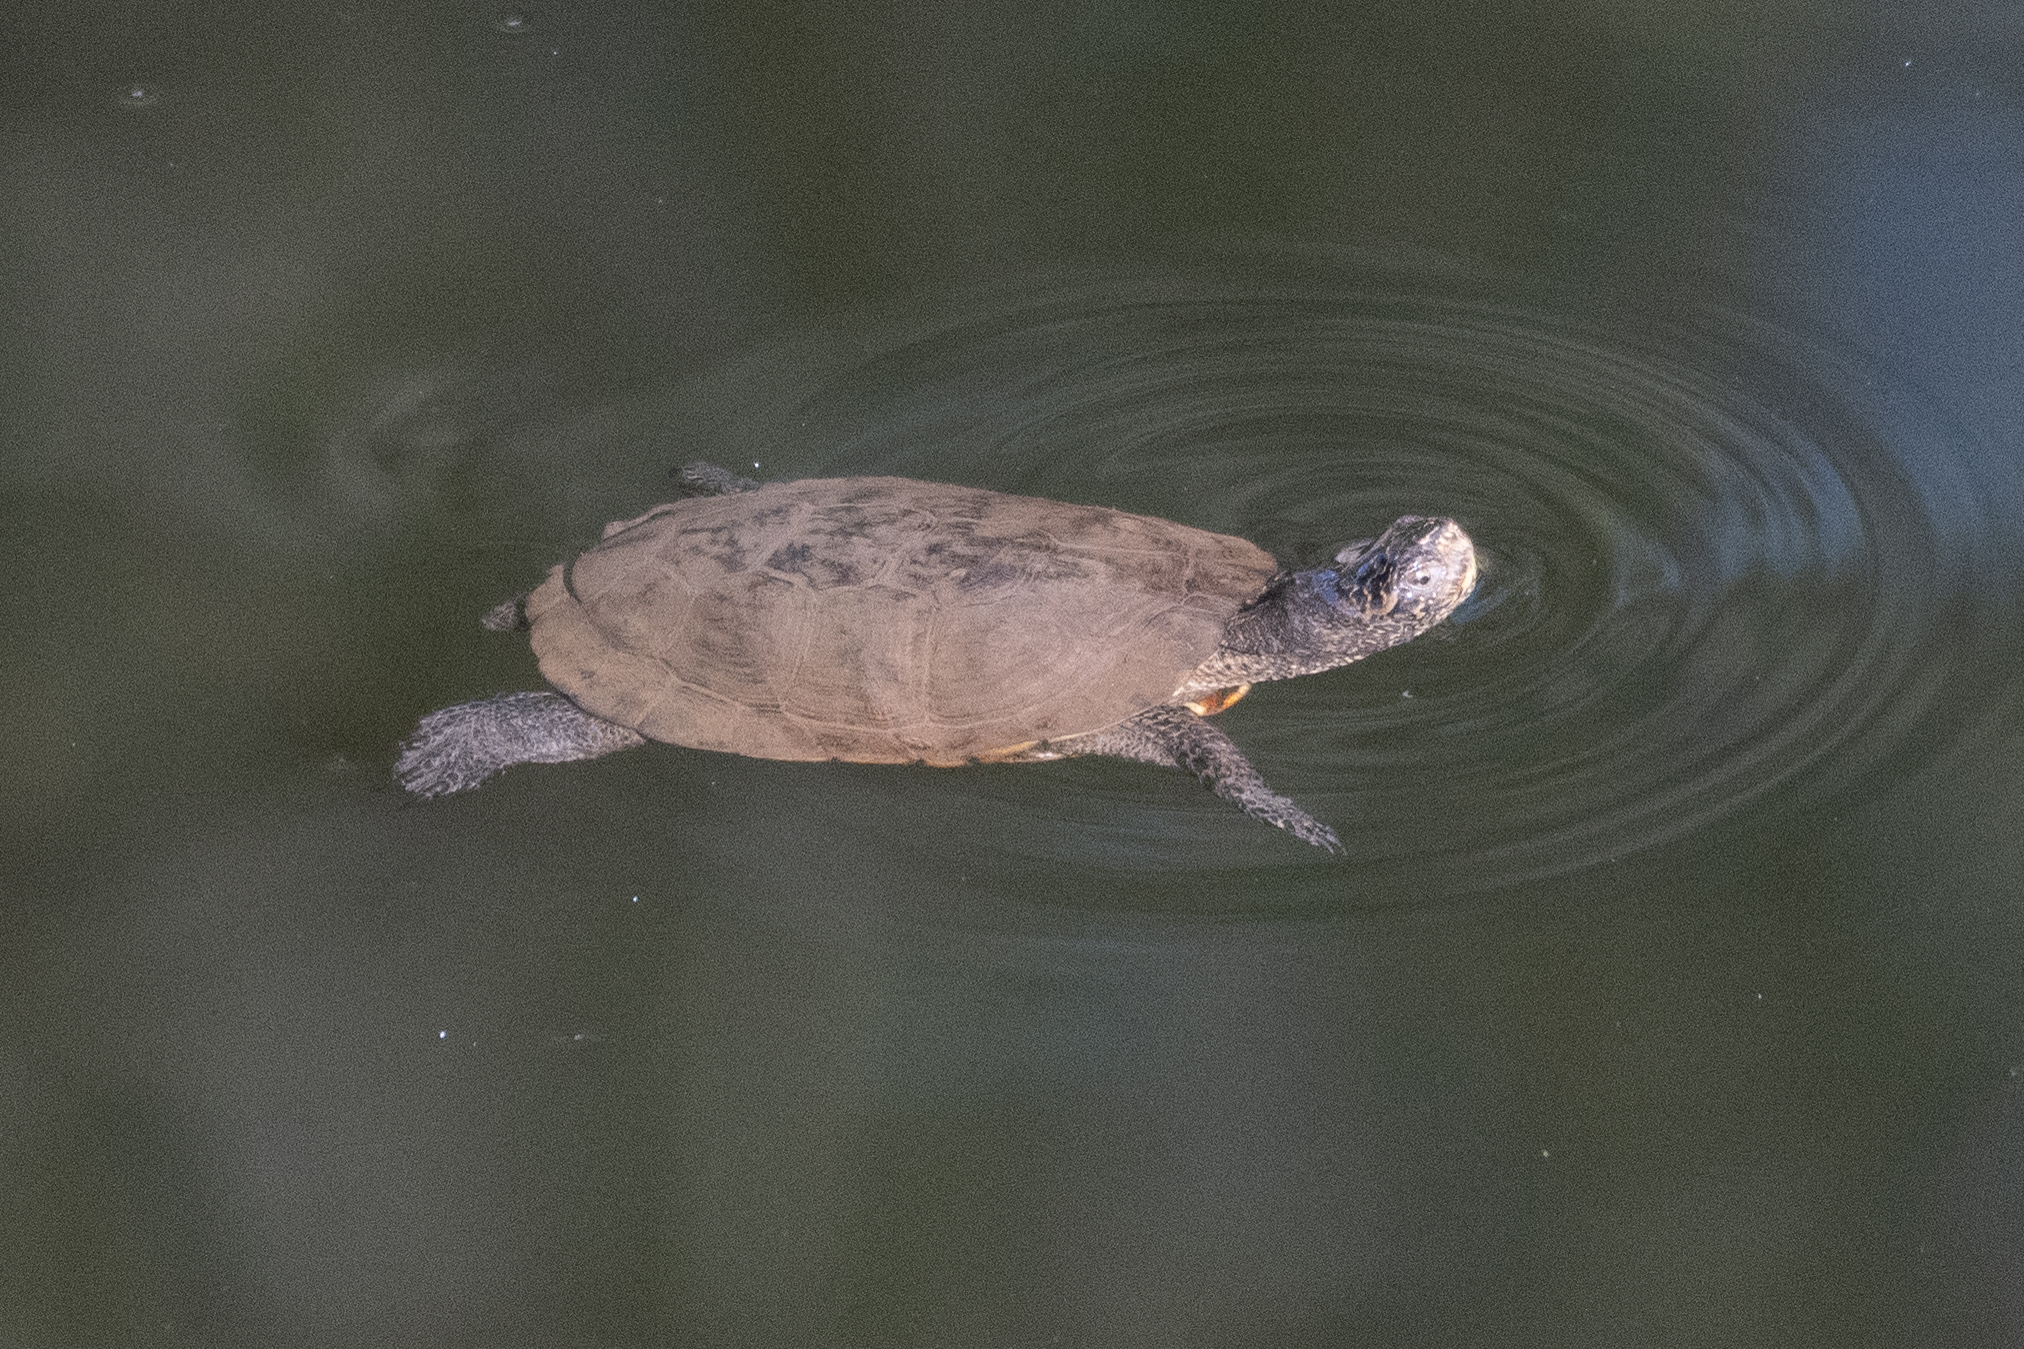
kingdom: Animalia
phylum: Chordata
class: Testudines
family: Emydidae
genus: Actinemys
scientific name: Actinemys marmorata
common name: Western pond turtle
